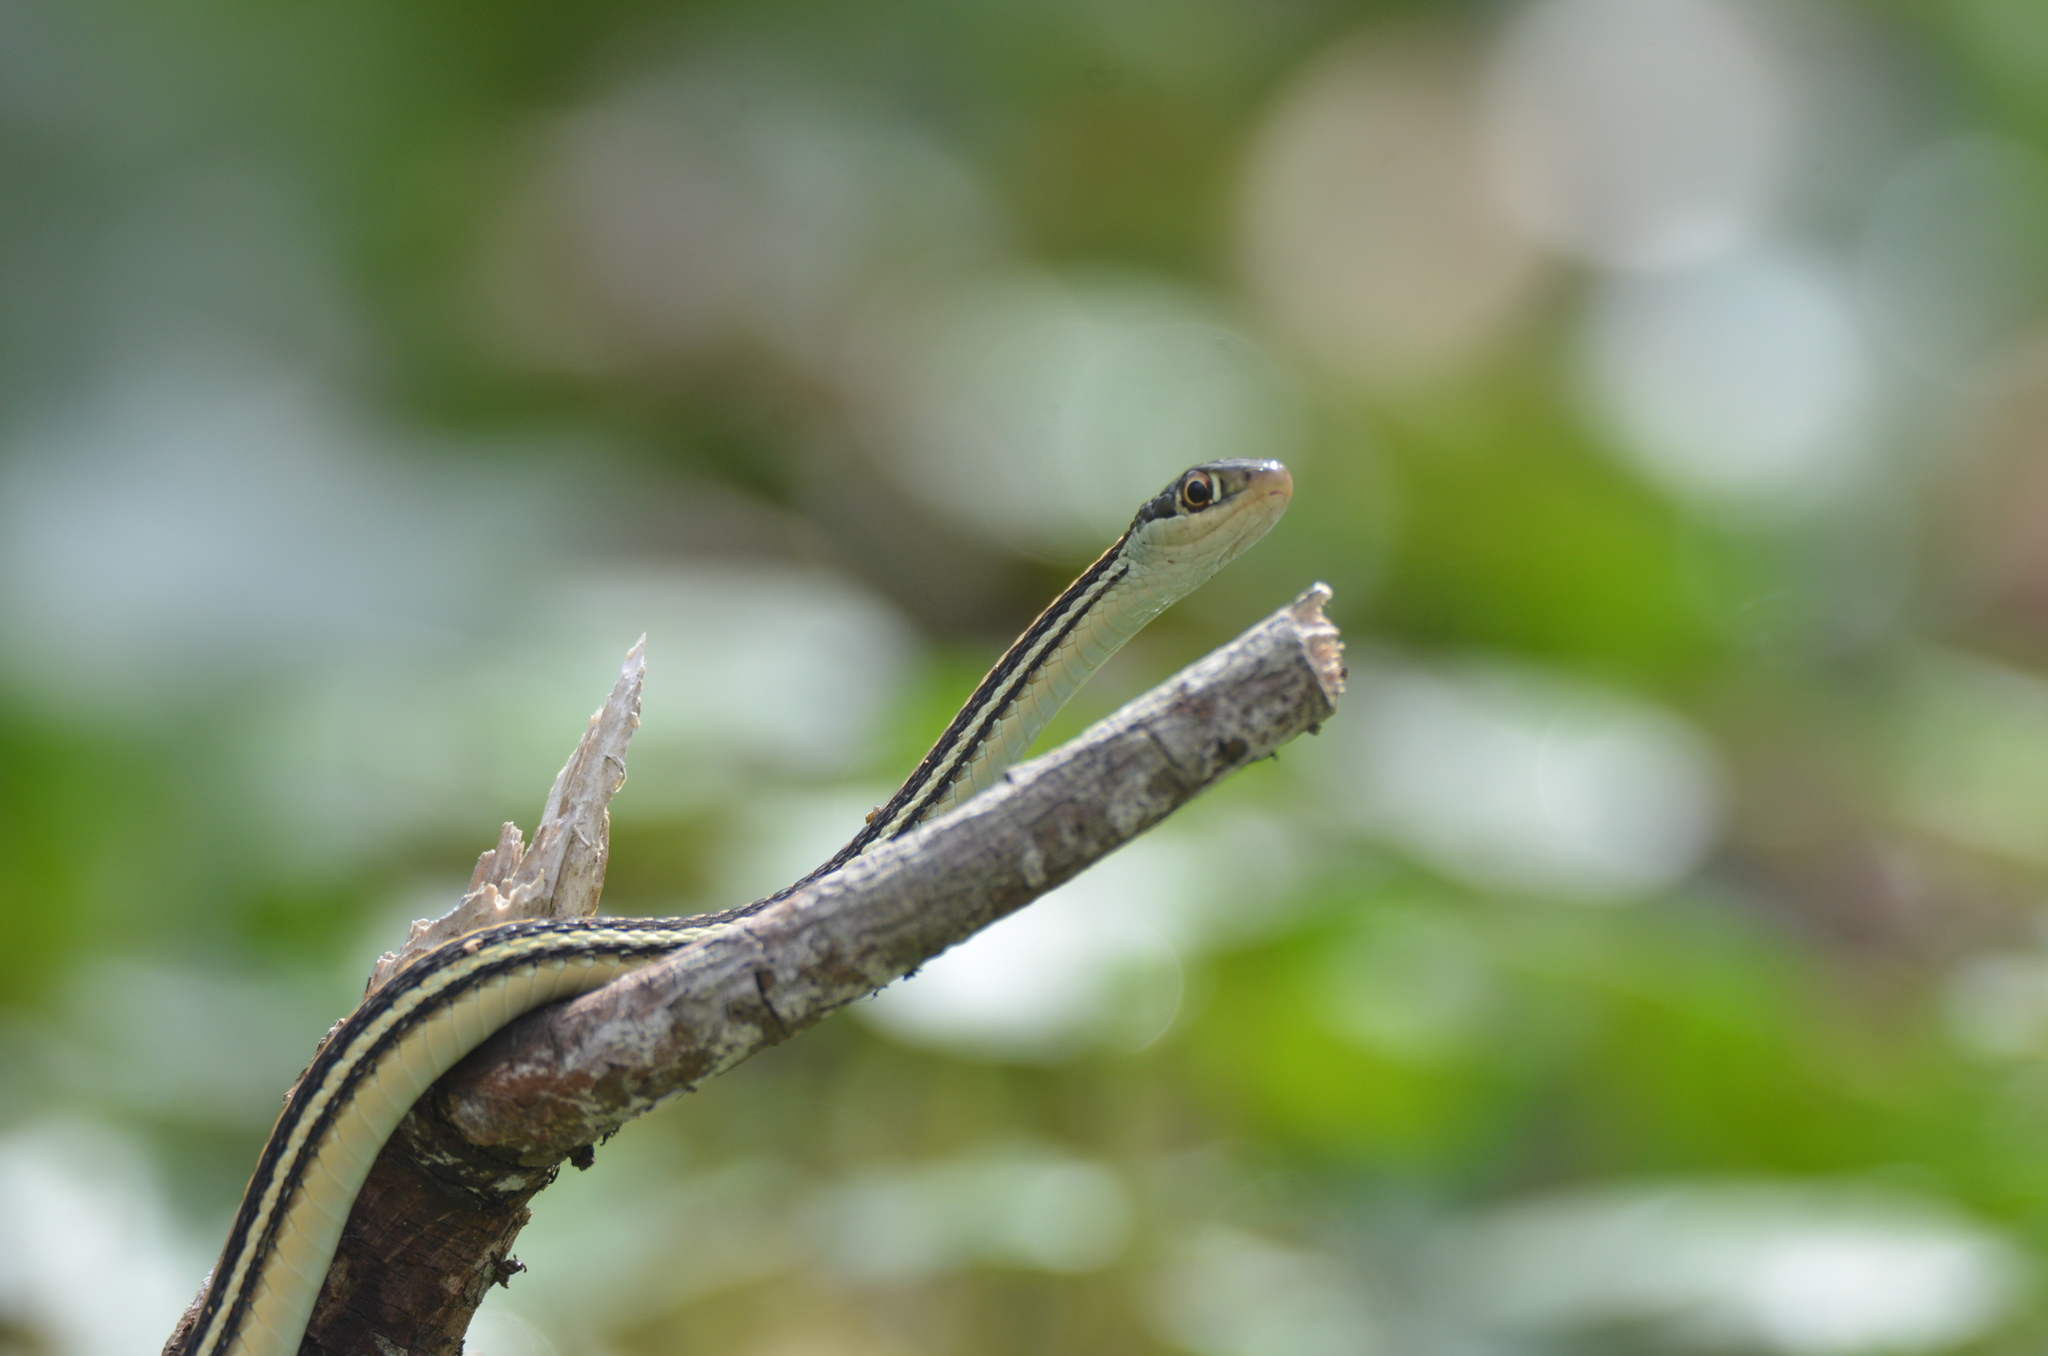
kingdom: Animalia
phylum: Chordata
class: Squamata
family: Colubridae
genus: Thamnophis
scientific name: Thamnophis proximus
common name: Western ribbon snake
